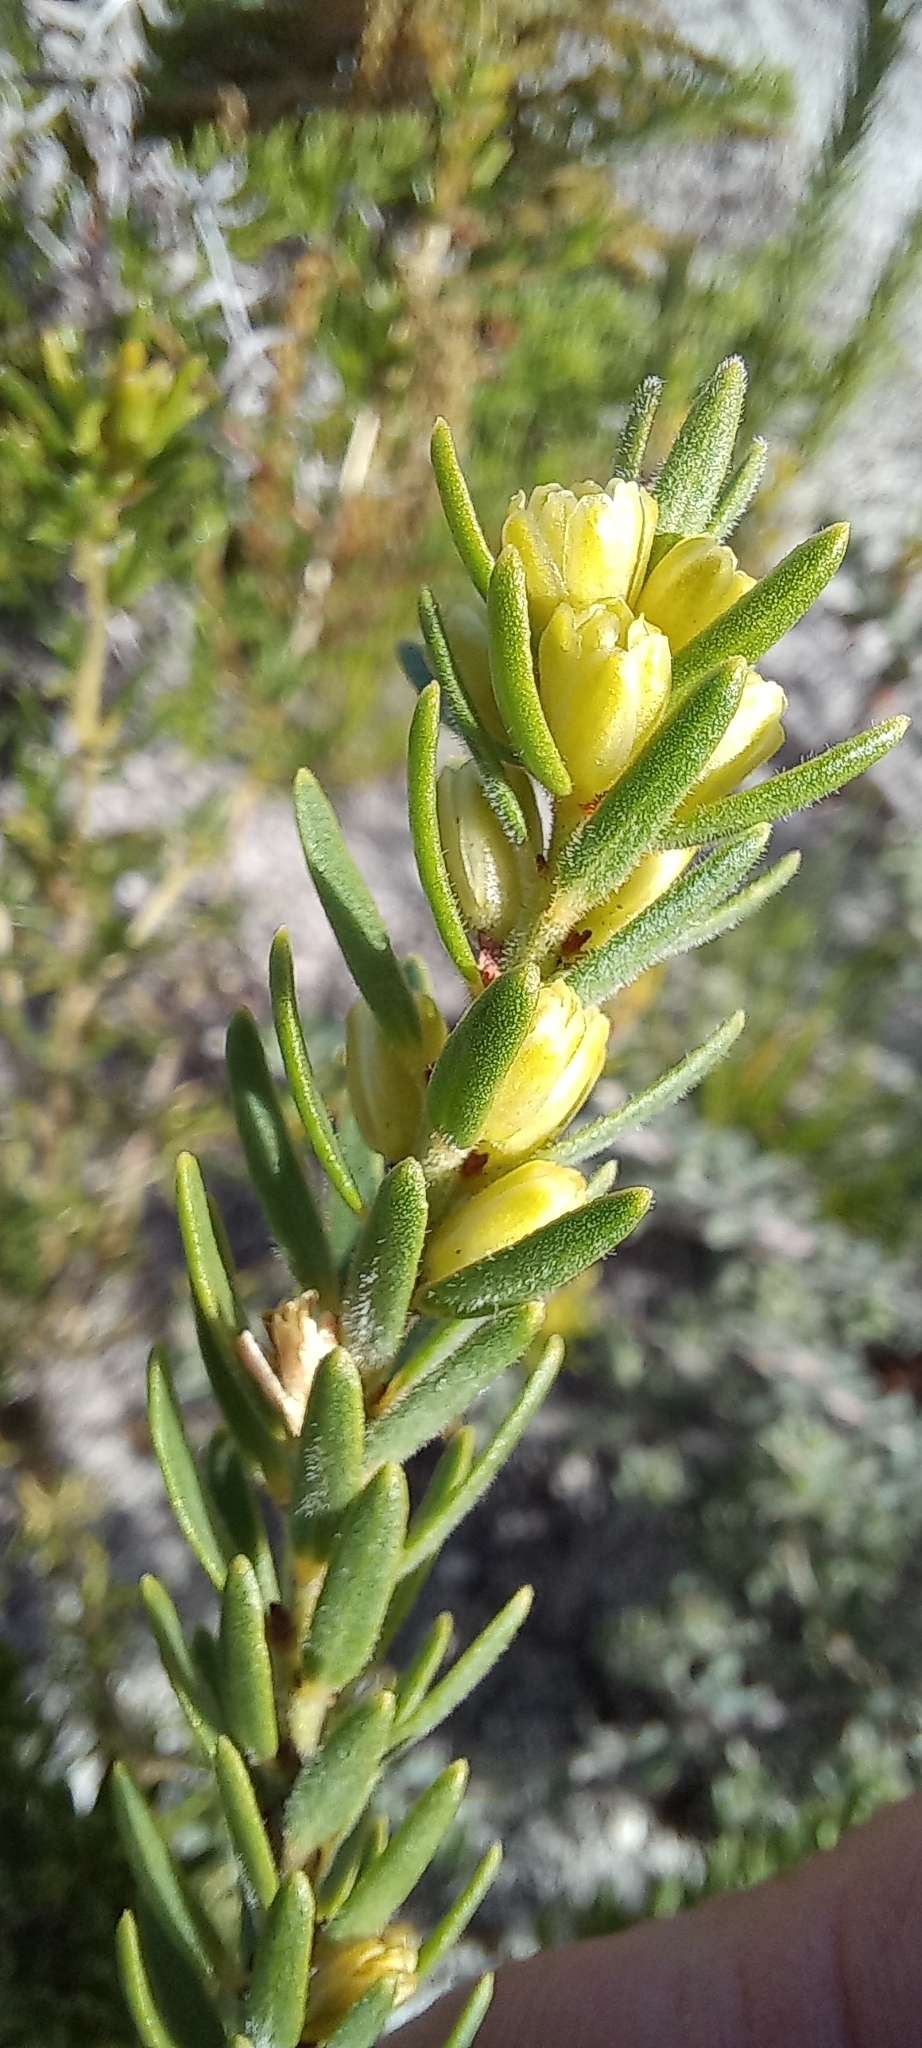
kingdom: Plantae
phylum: Tracheophyta
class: Magnoliopsida
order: Malpighiales
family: Peraceae
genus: Clutia
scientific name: Clutia ericoides
